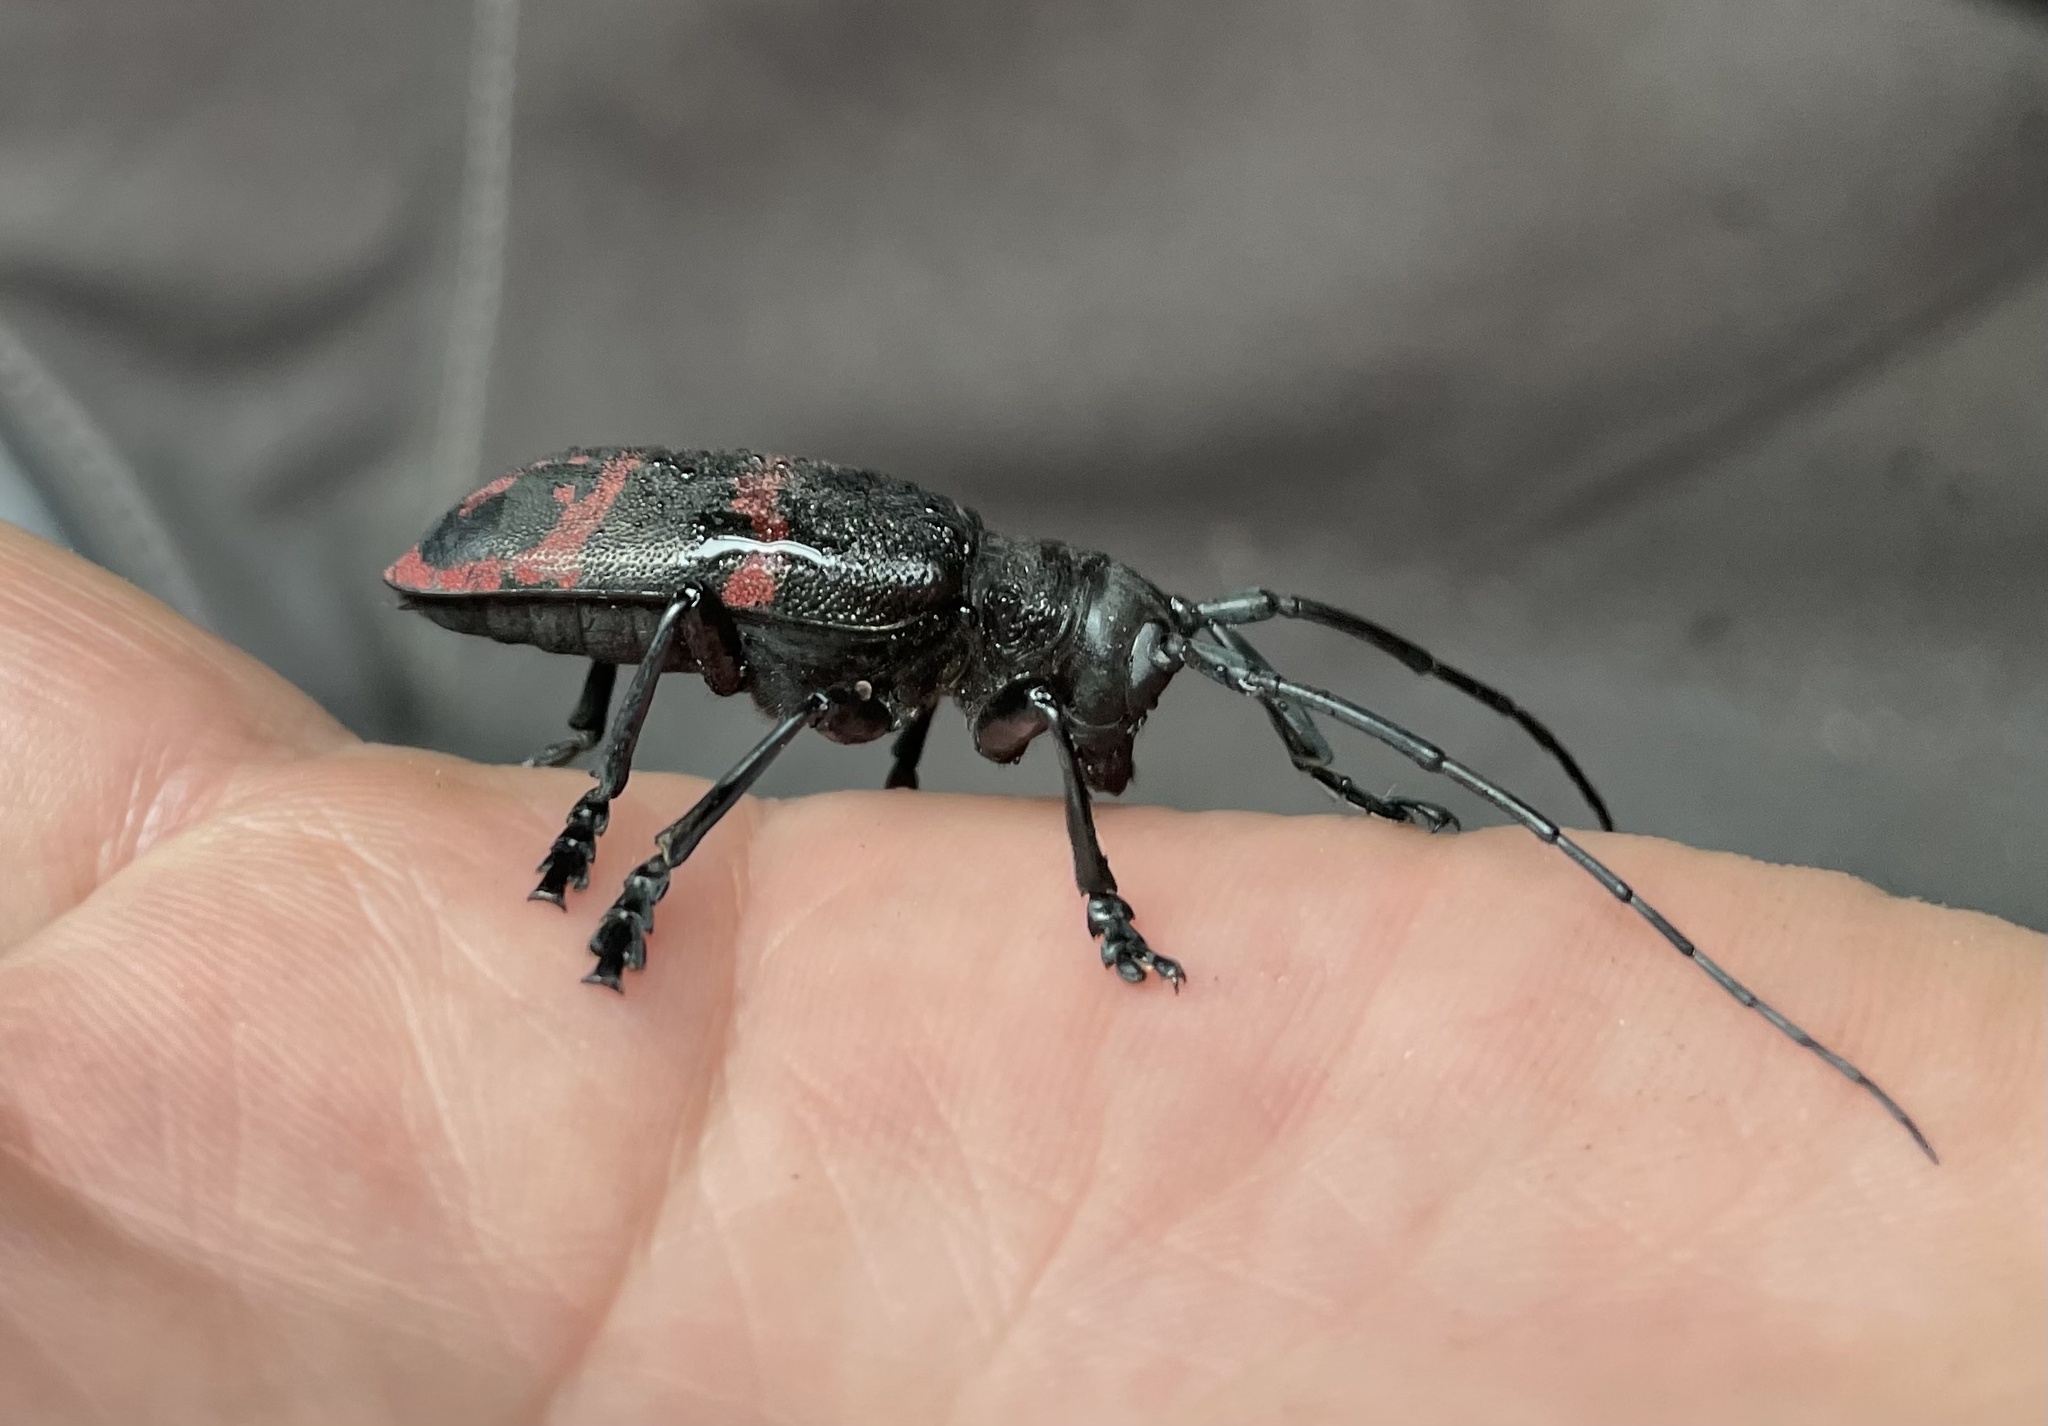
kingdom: Animalia
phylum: Arthropoda
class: Insecta
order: Coleoptera
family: Cerambycidae
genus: Ceroplesis
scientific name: Ceroplesis militaris
